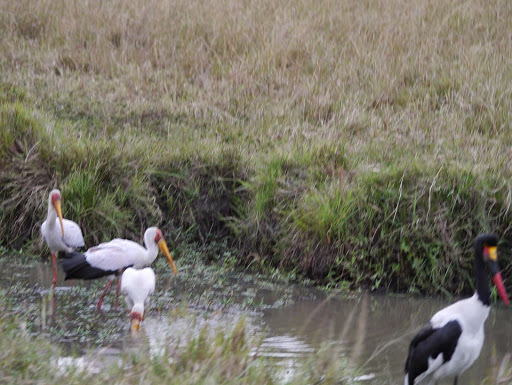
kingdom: Animalia
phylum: Chordata
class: Aves
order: Ciconiiformes
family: Ciconiidae
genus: Ephippiorhynchus
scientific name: Ephippiorhynchus senegalensis
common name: Saddle-billed stork
